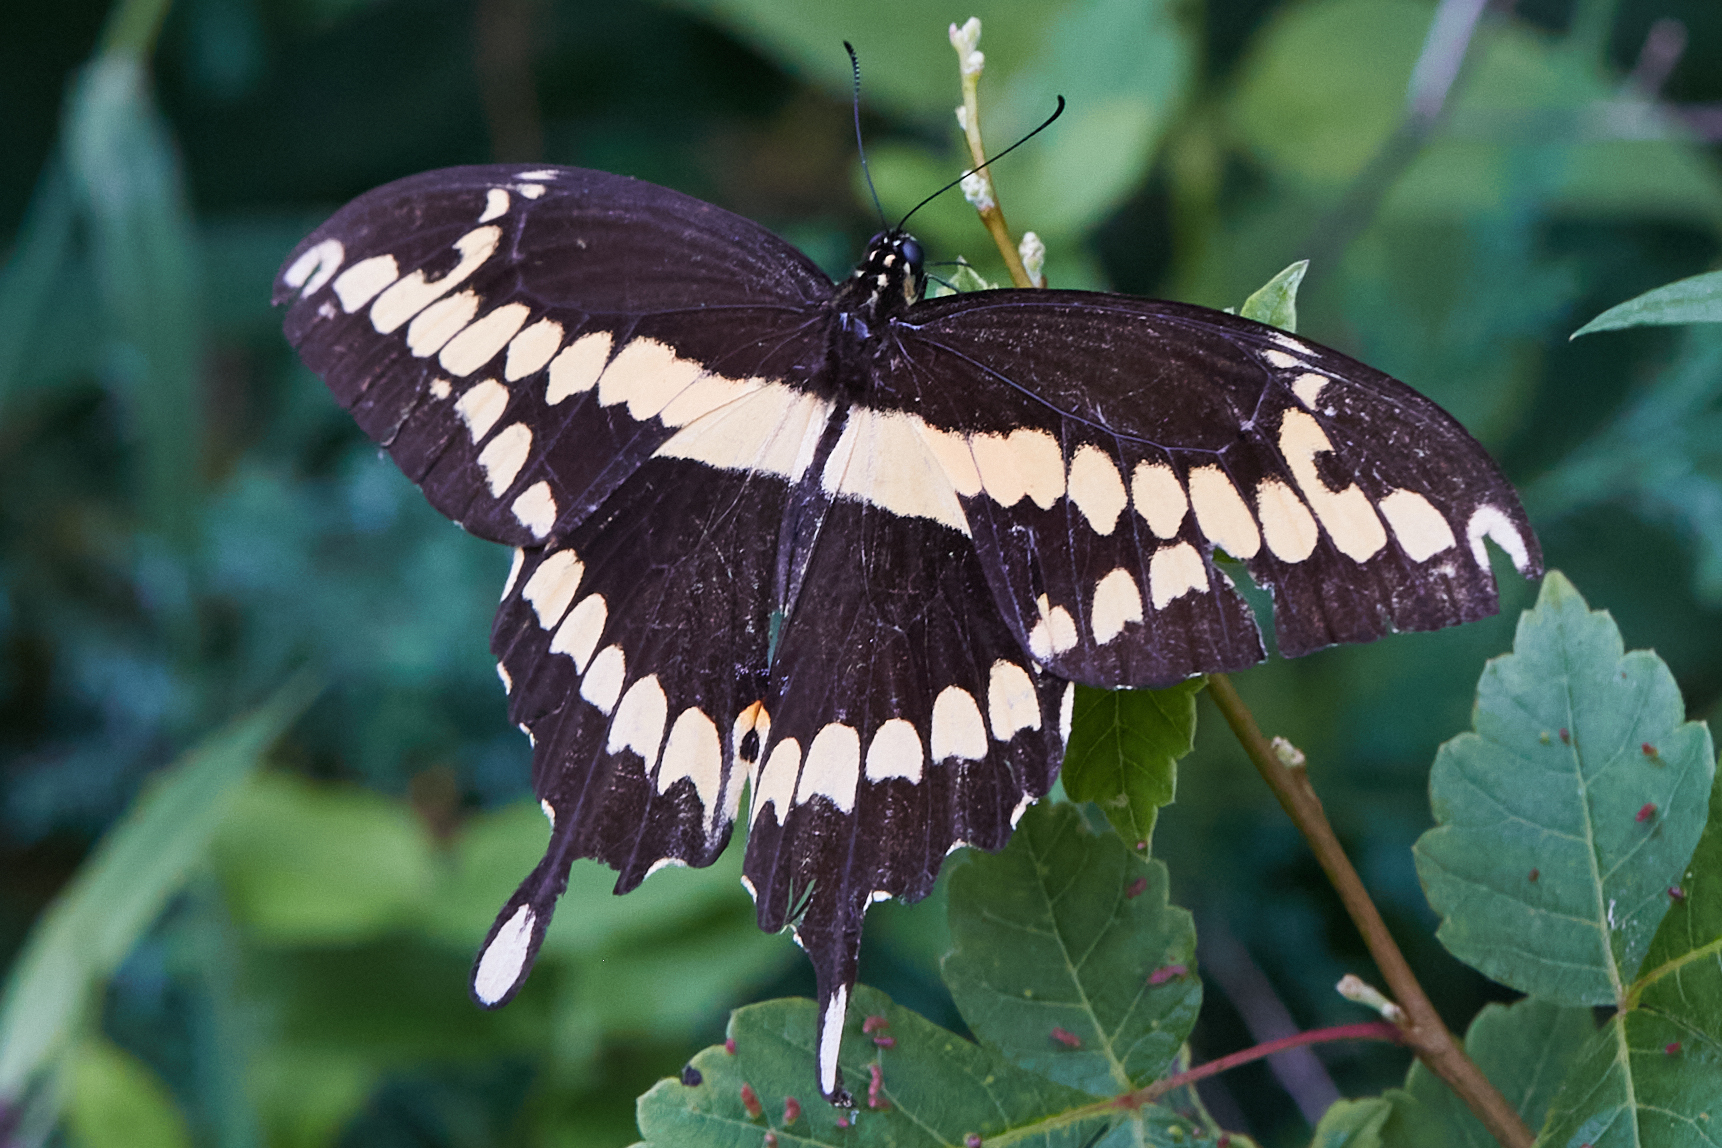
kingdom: Animalia
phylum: Arthropoda
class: Insecta
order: Lepidoptera
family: Papilionidae
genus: Papilio
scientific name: Papilio cresphontes
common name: Giant swallowtail
